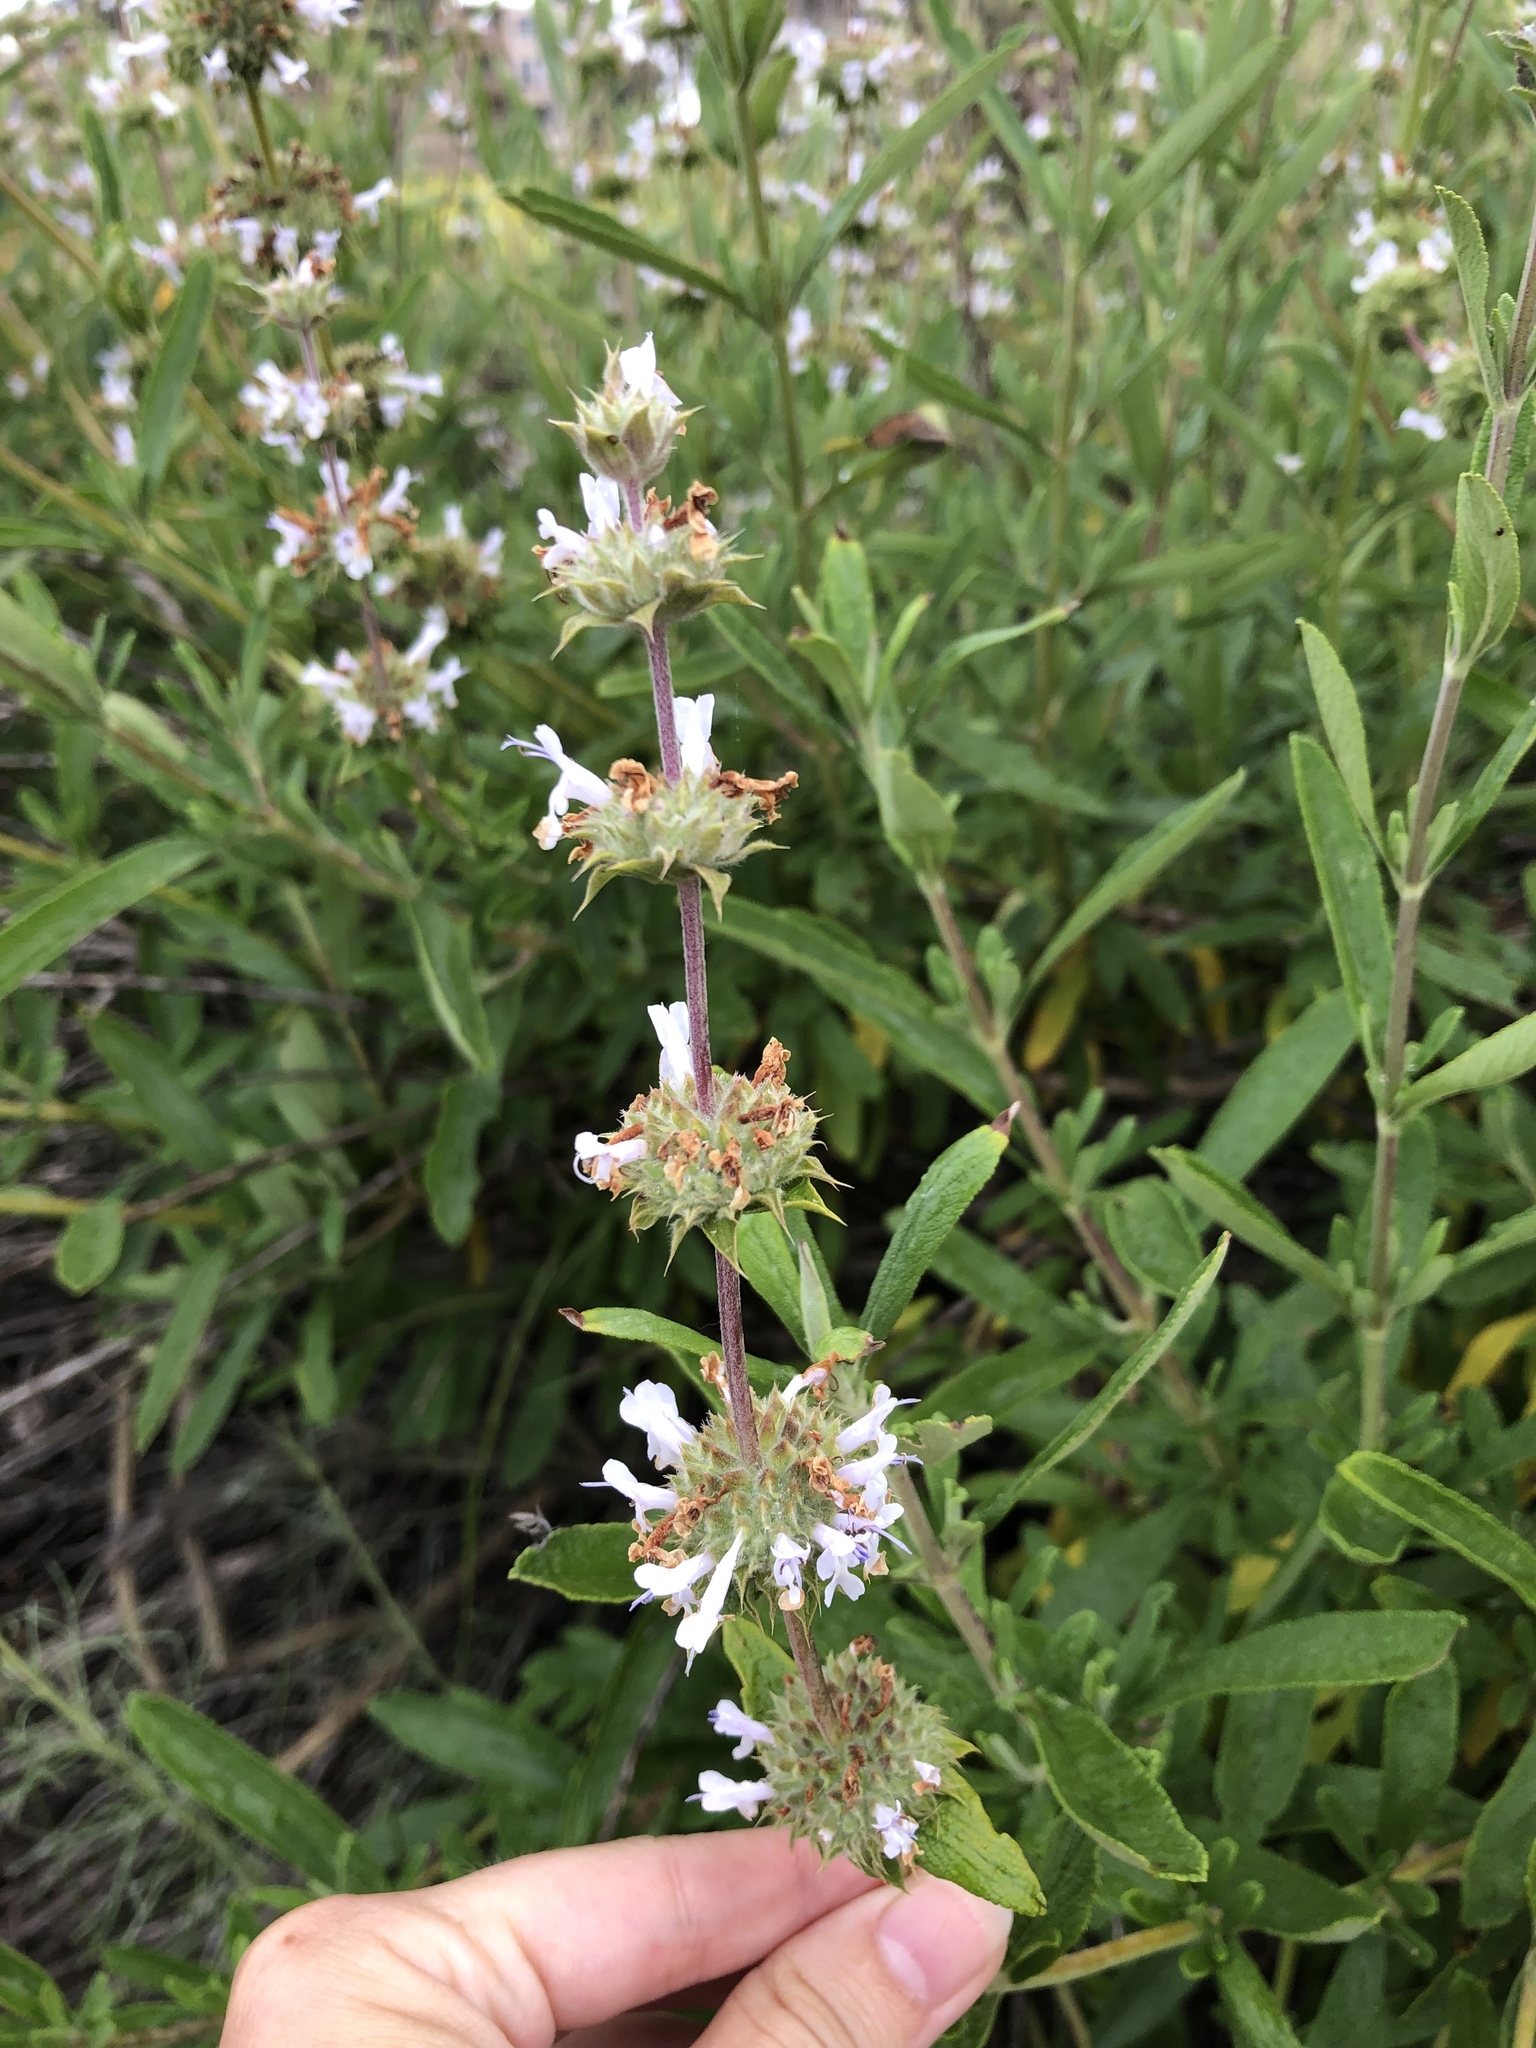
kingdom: Plantae
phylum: Tracheophyta
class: Magnoliopsida
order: Lamiales
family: Lamiaceae
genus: Salvia
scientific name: Salvia mellifera
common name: Black sage
